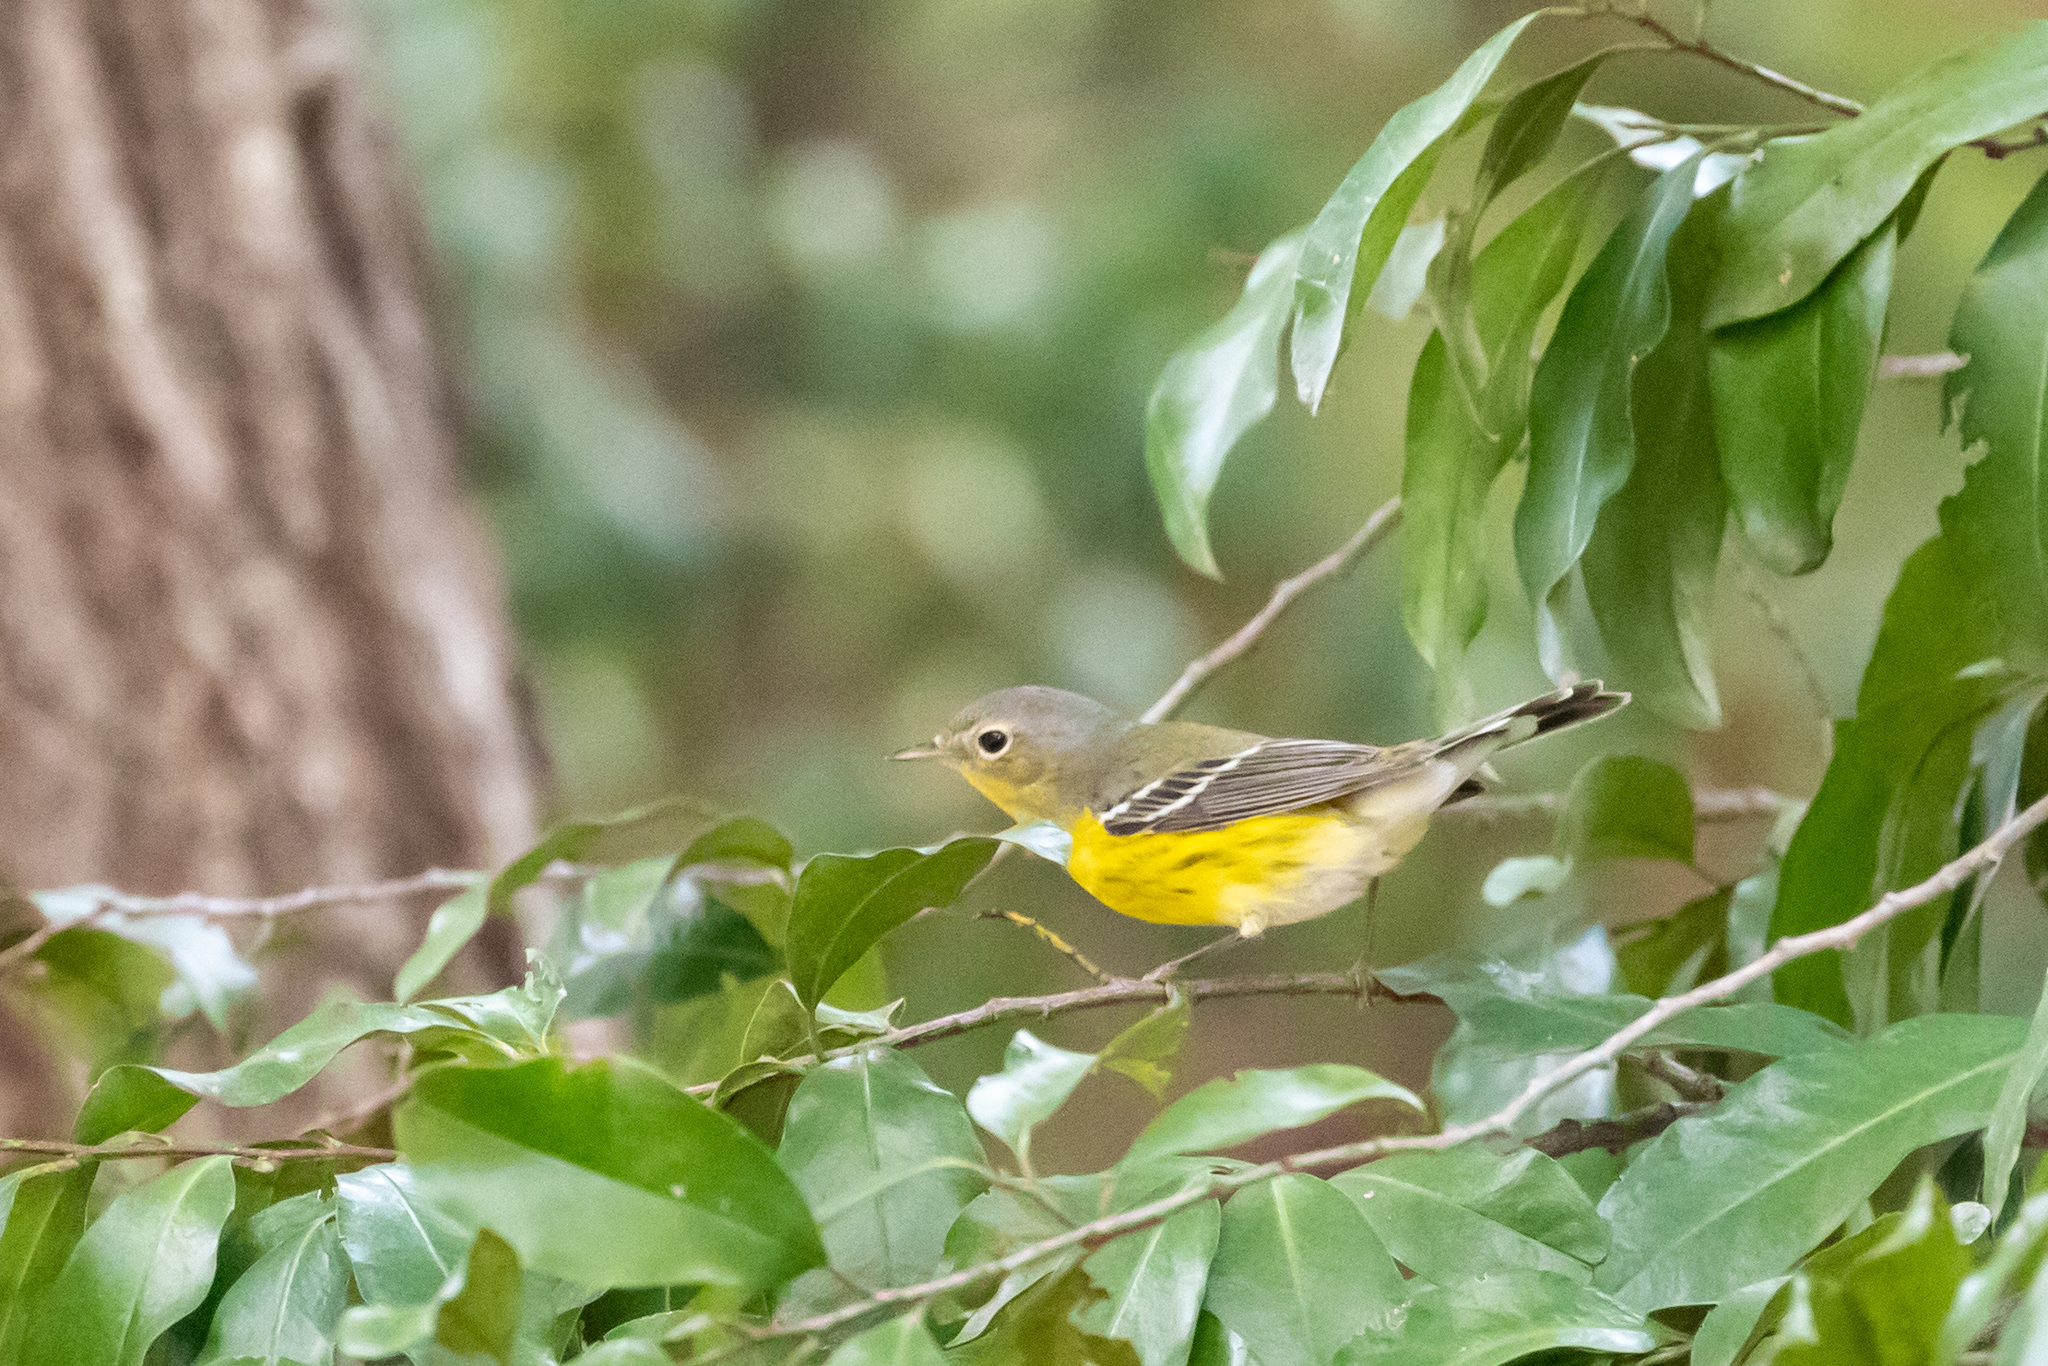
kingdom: Animalia
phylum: Chordata
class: Aves
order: Passeriformes
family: Parulidae
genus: Setophaga
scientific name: Setophaga magnolia
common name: Magnolia warbler
